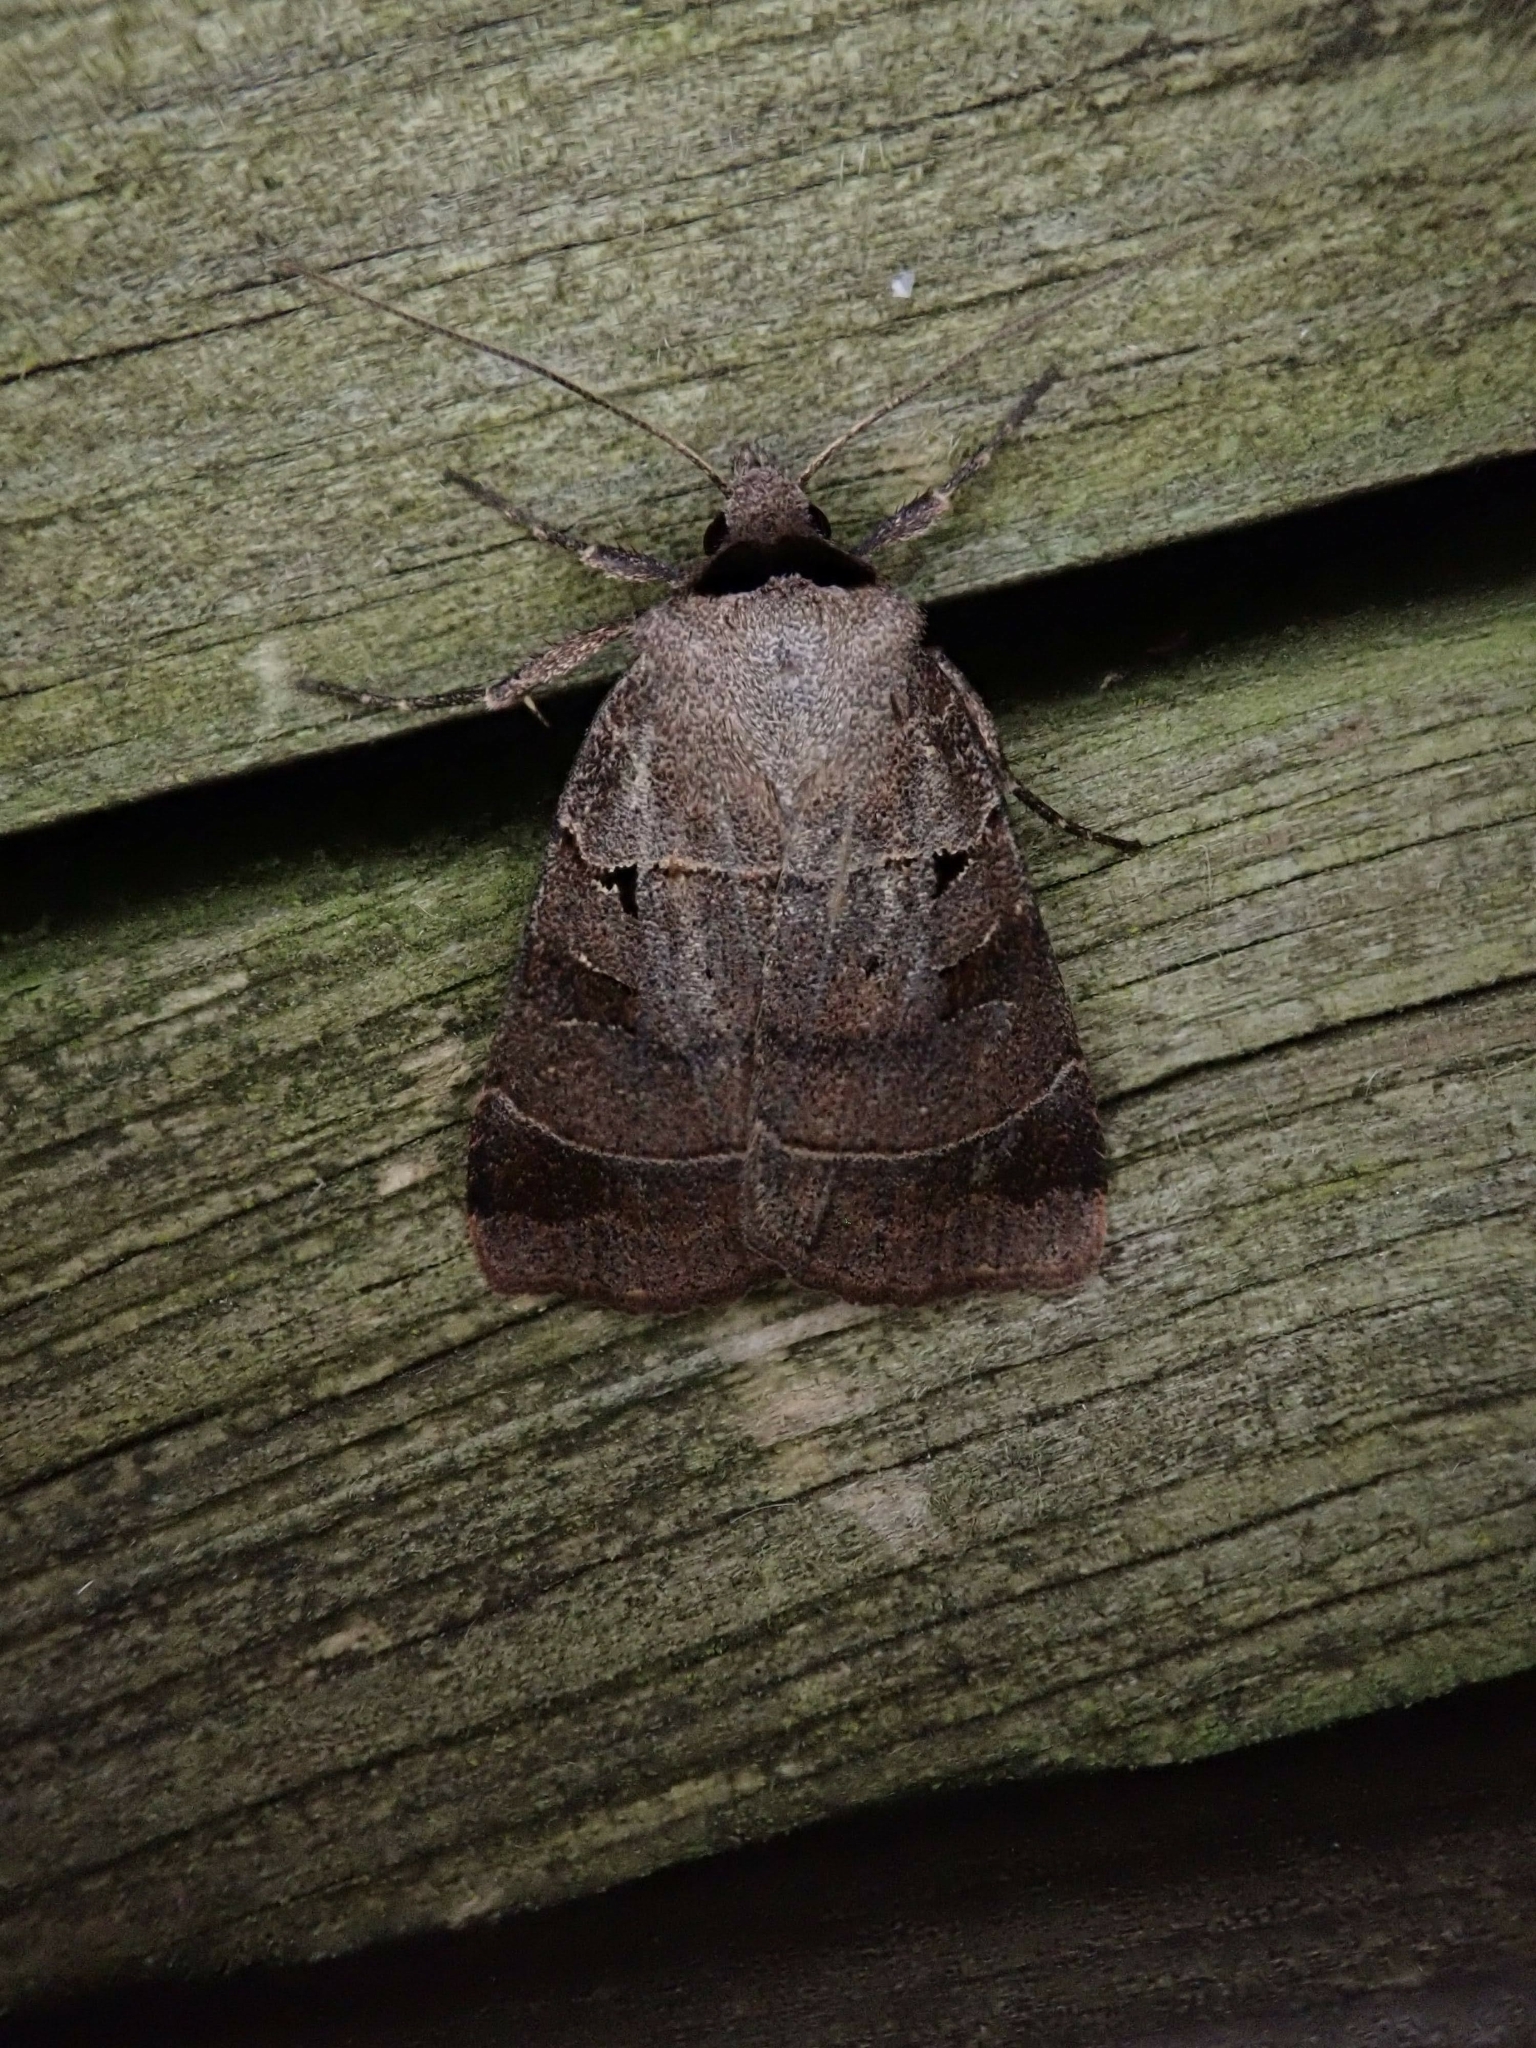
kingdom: Animalia
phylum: Arthropoda
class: Insecta
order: Lepidoptera
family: Noctuidae
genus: Agnorisma
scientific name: Agnorisma badinodis
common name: Pale-banded dart
